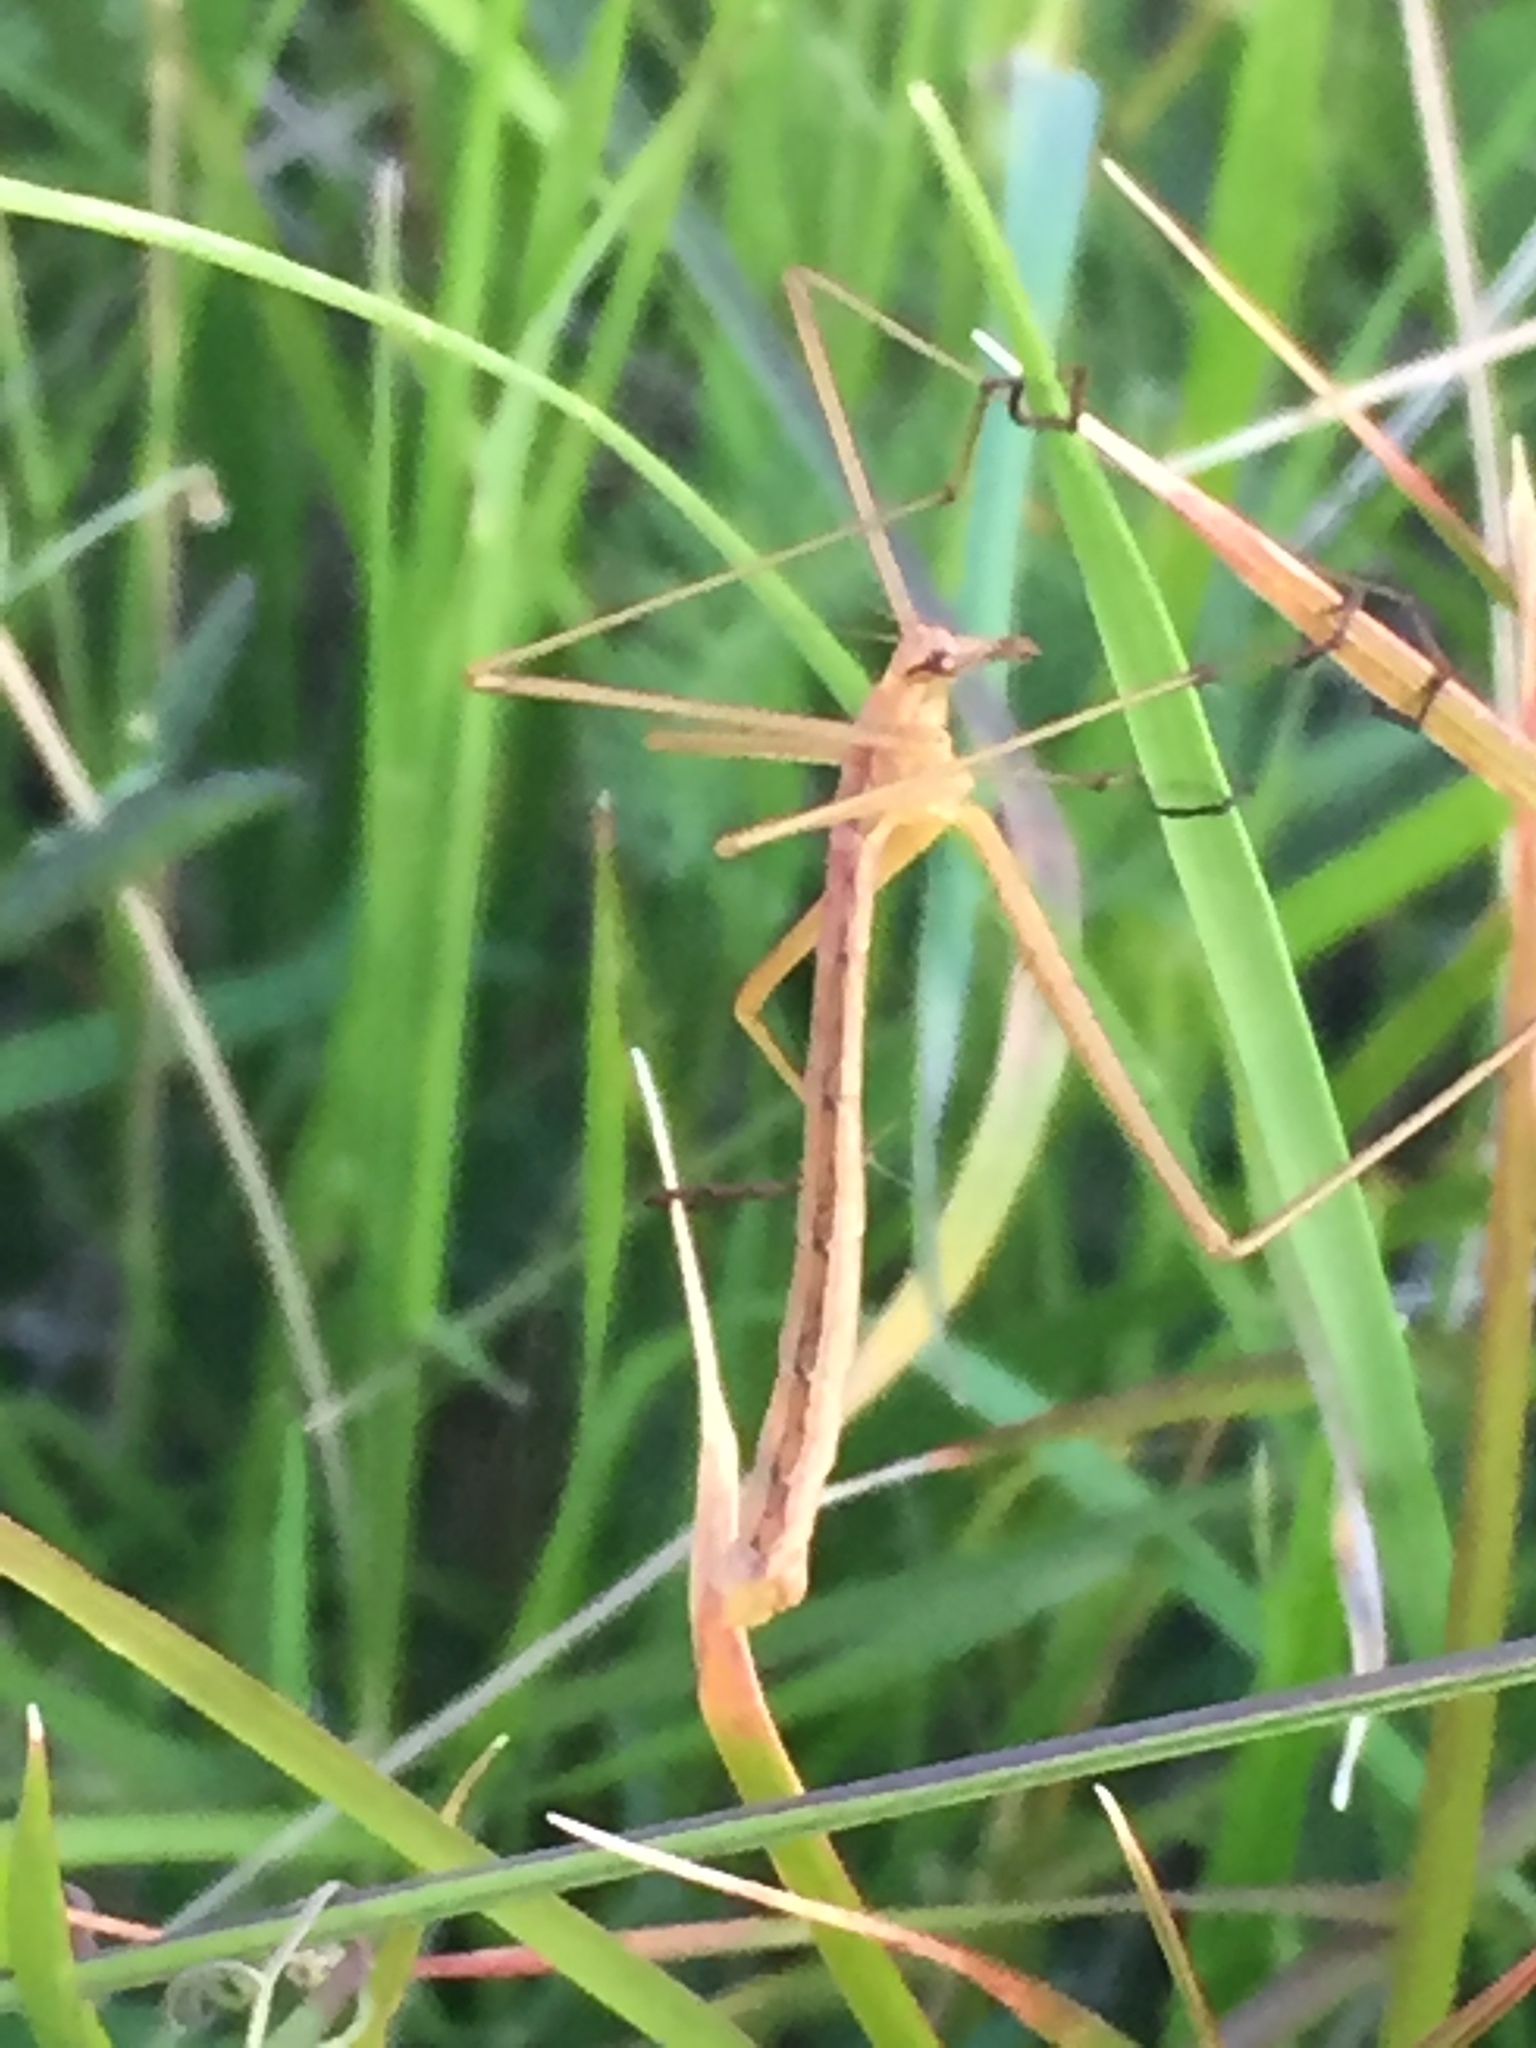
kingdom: Animalia
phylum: Arthropoda
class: Insecta
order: Mecoptera
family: Bittacidae
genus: Apterobittacus
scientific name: Apterobittacus apterus
